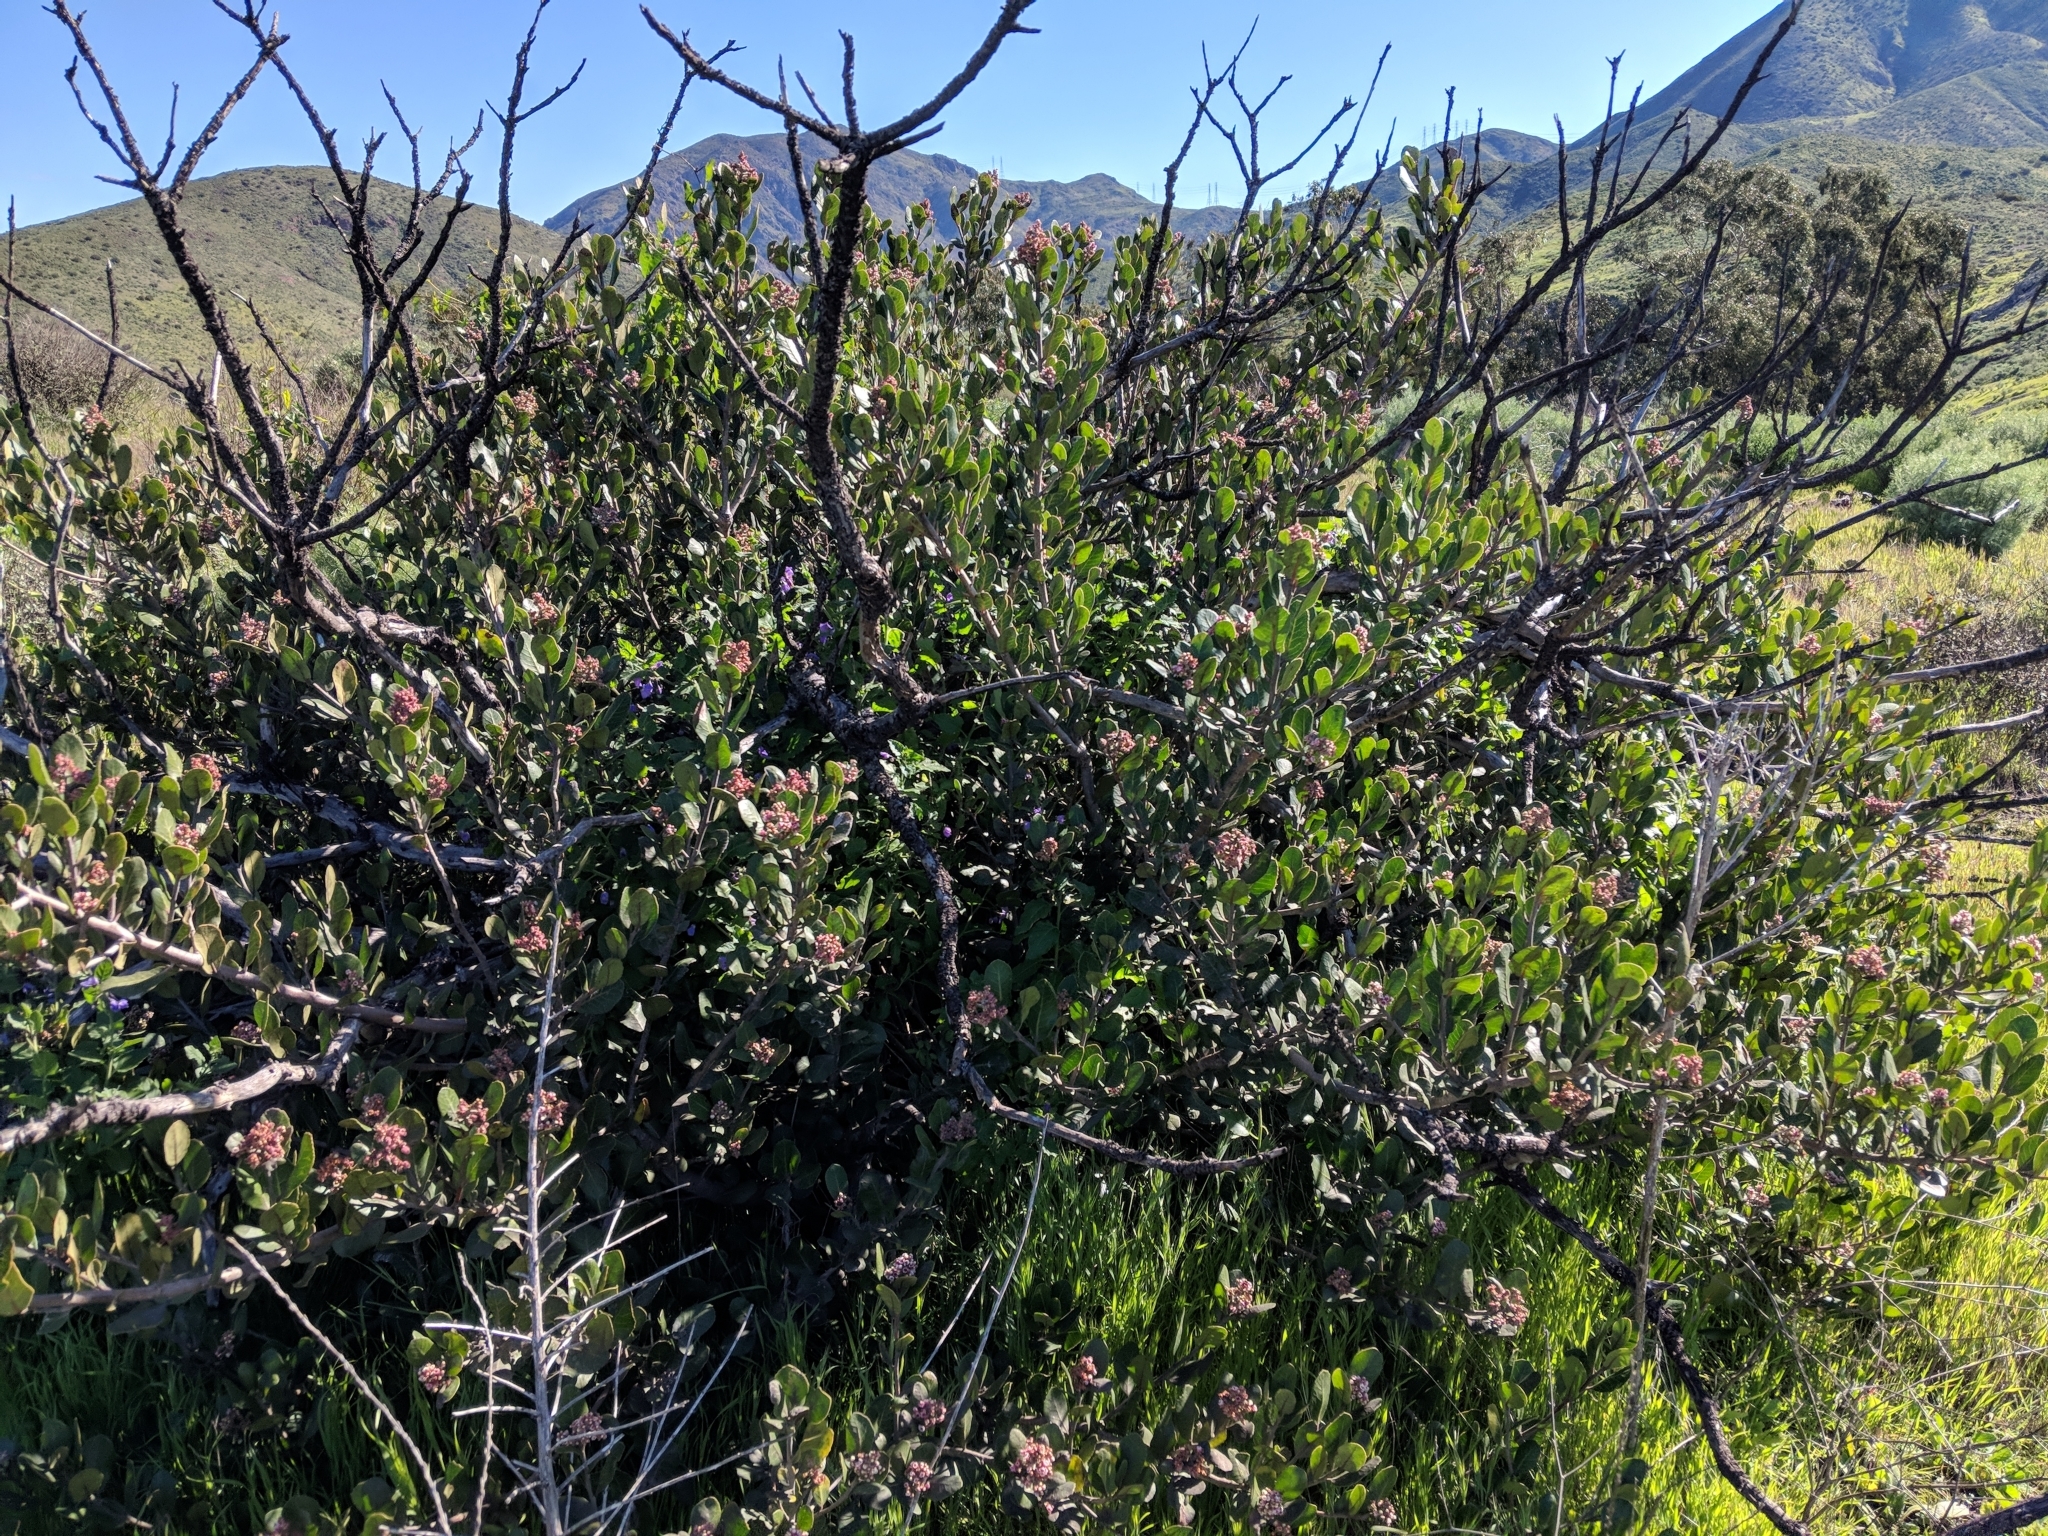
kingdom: Plantae
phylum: Tracheophyta
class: Magnoliopsida
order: Sapindales
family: Anacardiaceae
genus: Rhus
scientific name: Rhus integrifolia
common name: Lemonade sumac
